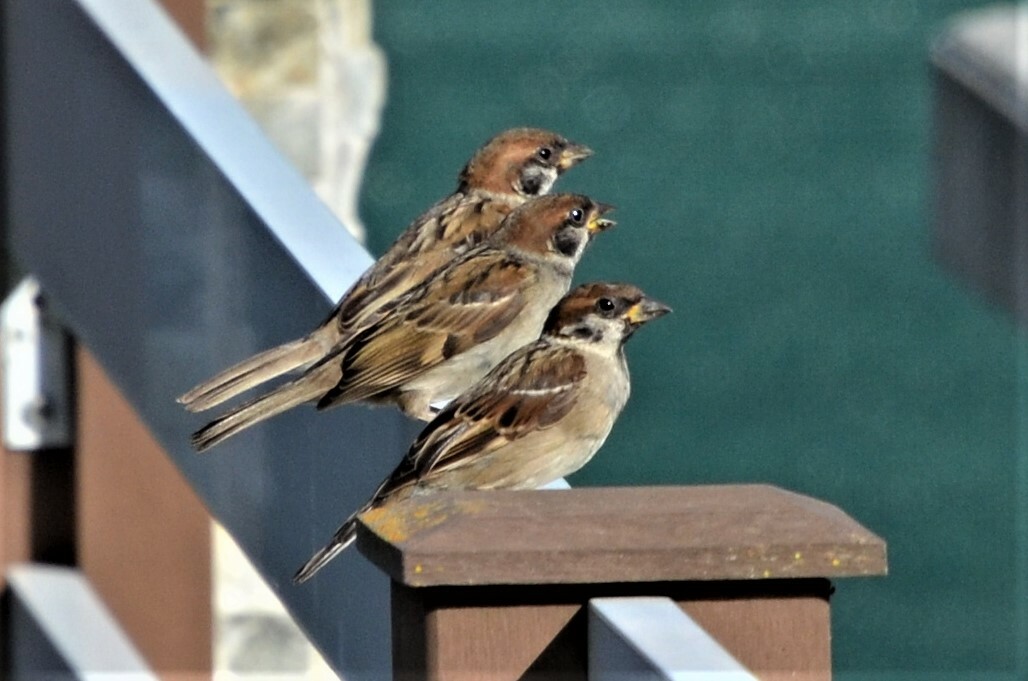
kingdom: Animalia
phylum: Chordata
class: Aves
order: Passeriformes
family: Passeridae
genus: Passer
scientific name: Passer montanus
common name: Eurasian tree sparrow
